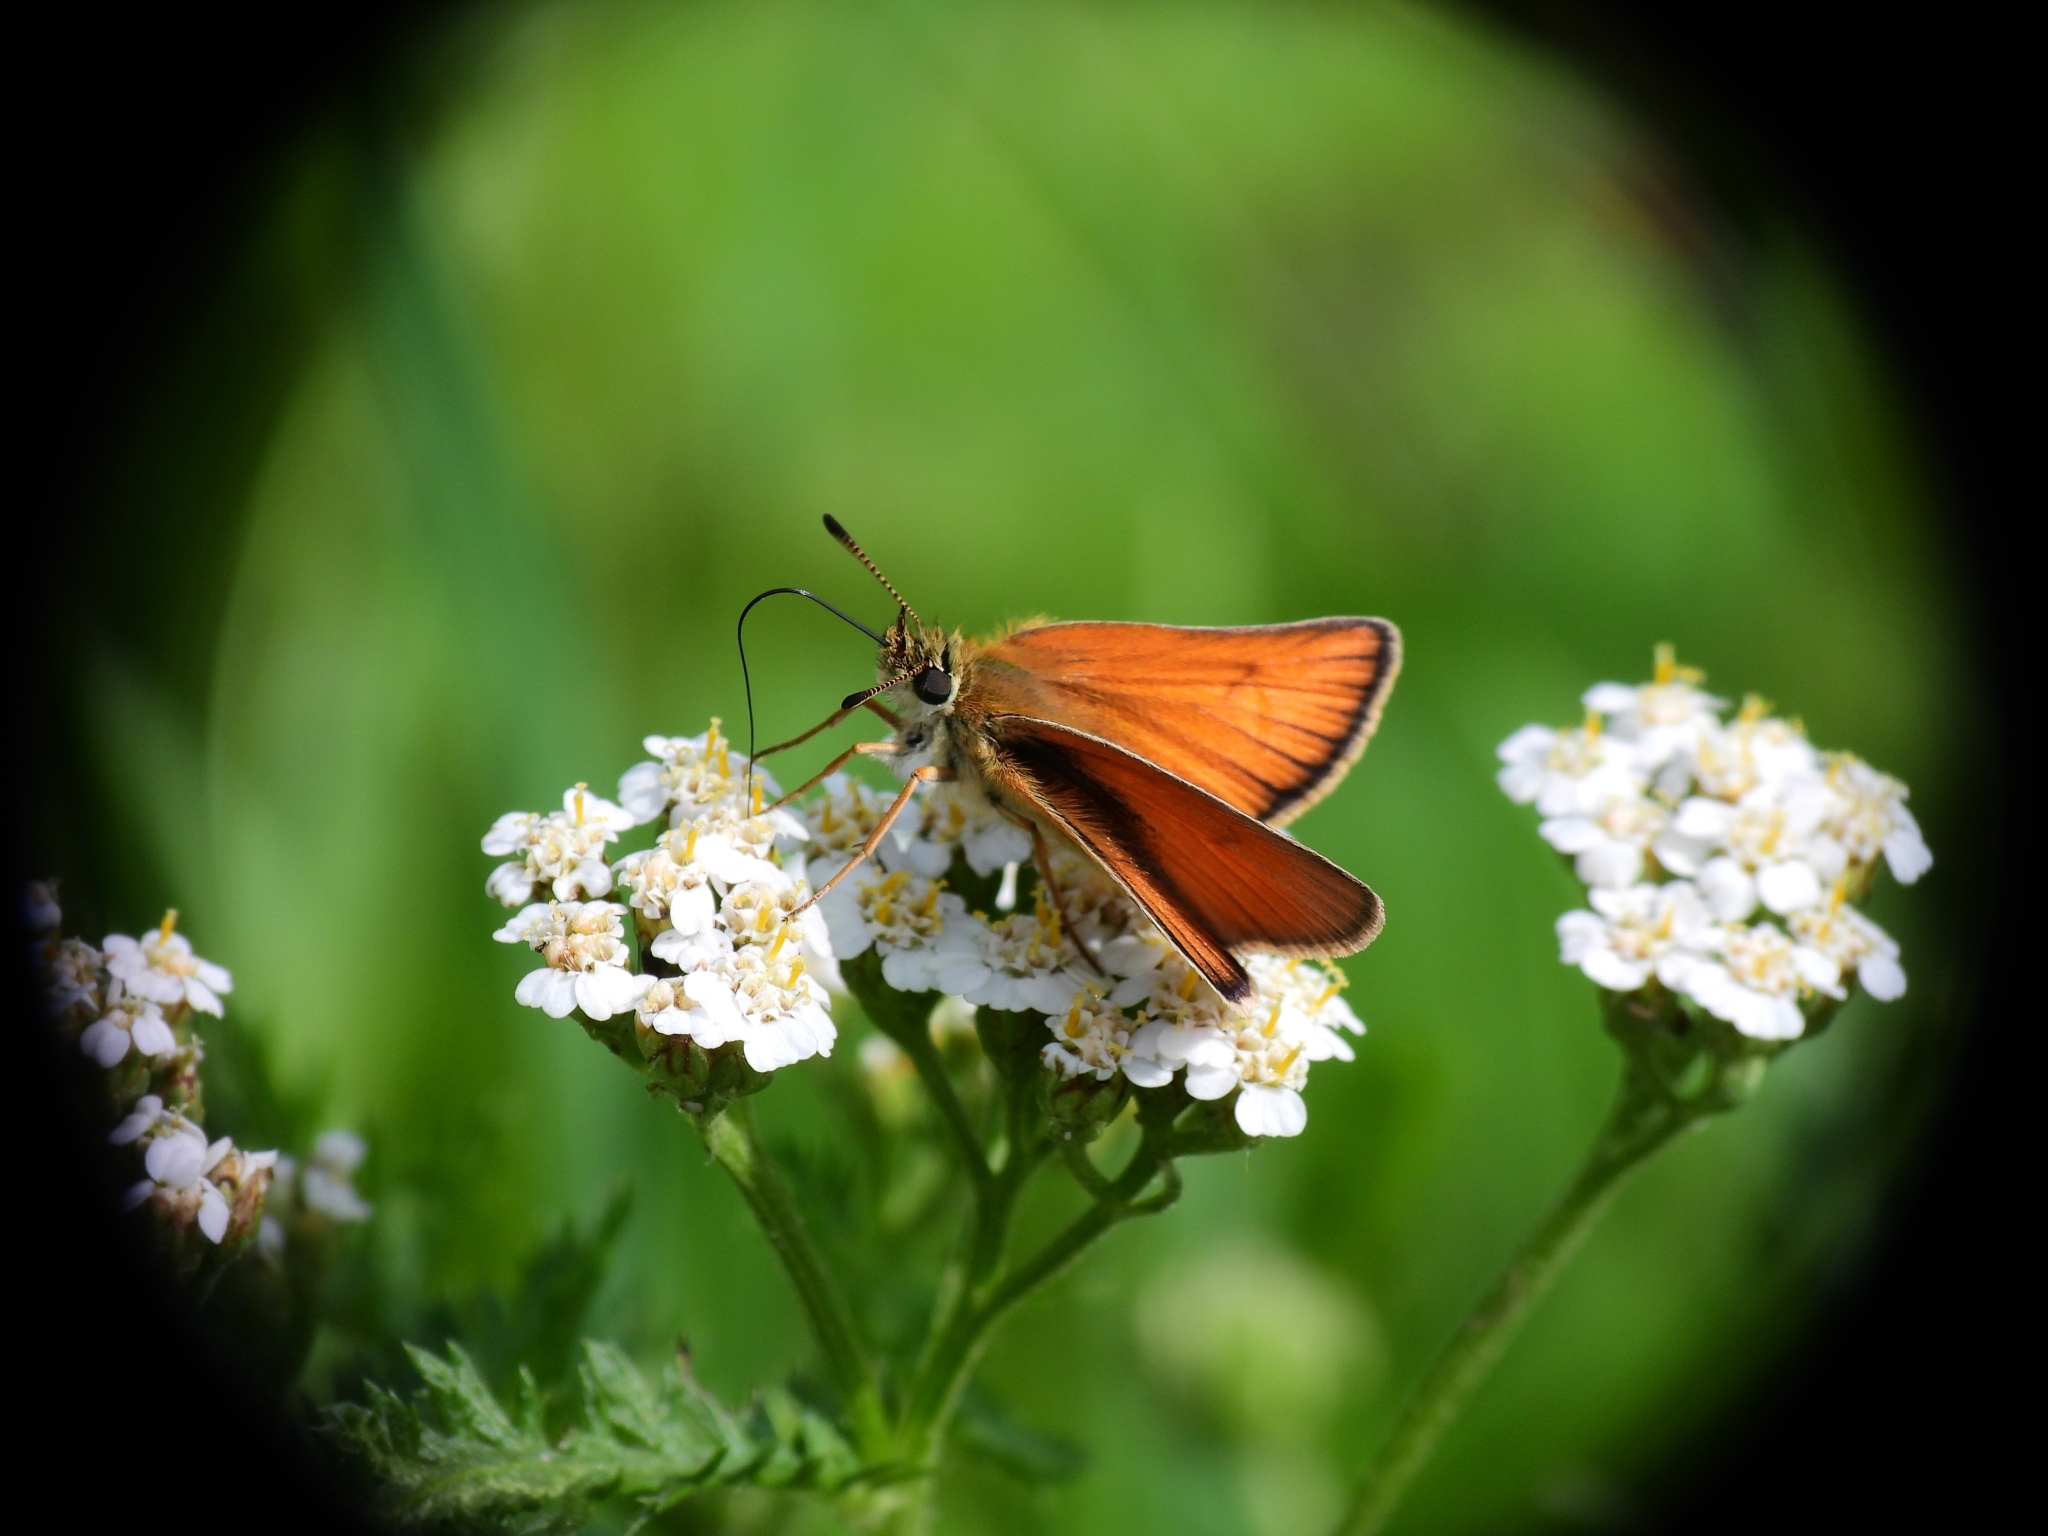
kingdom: Animalia
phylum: Arthropoda
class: Insecta
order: Lepidoptera
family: Hesperiidae
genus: Thymelicus
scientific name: Thymelicus lineola
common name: Essex skipper
